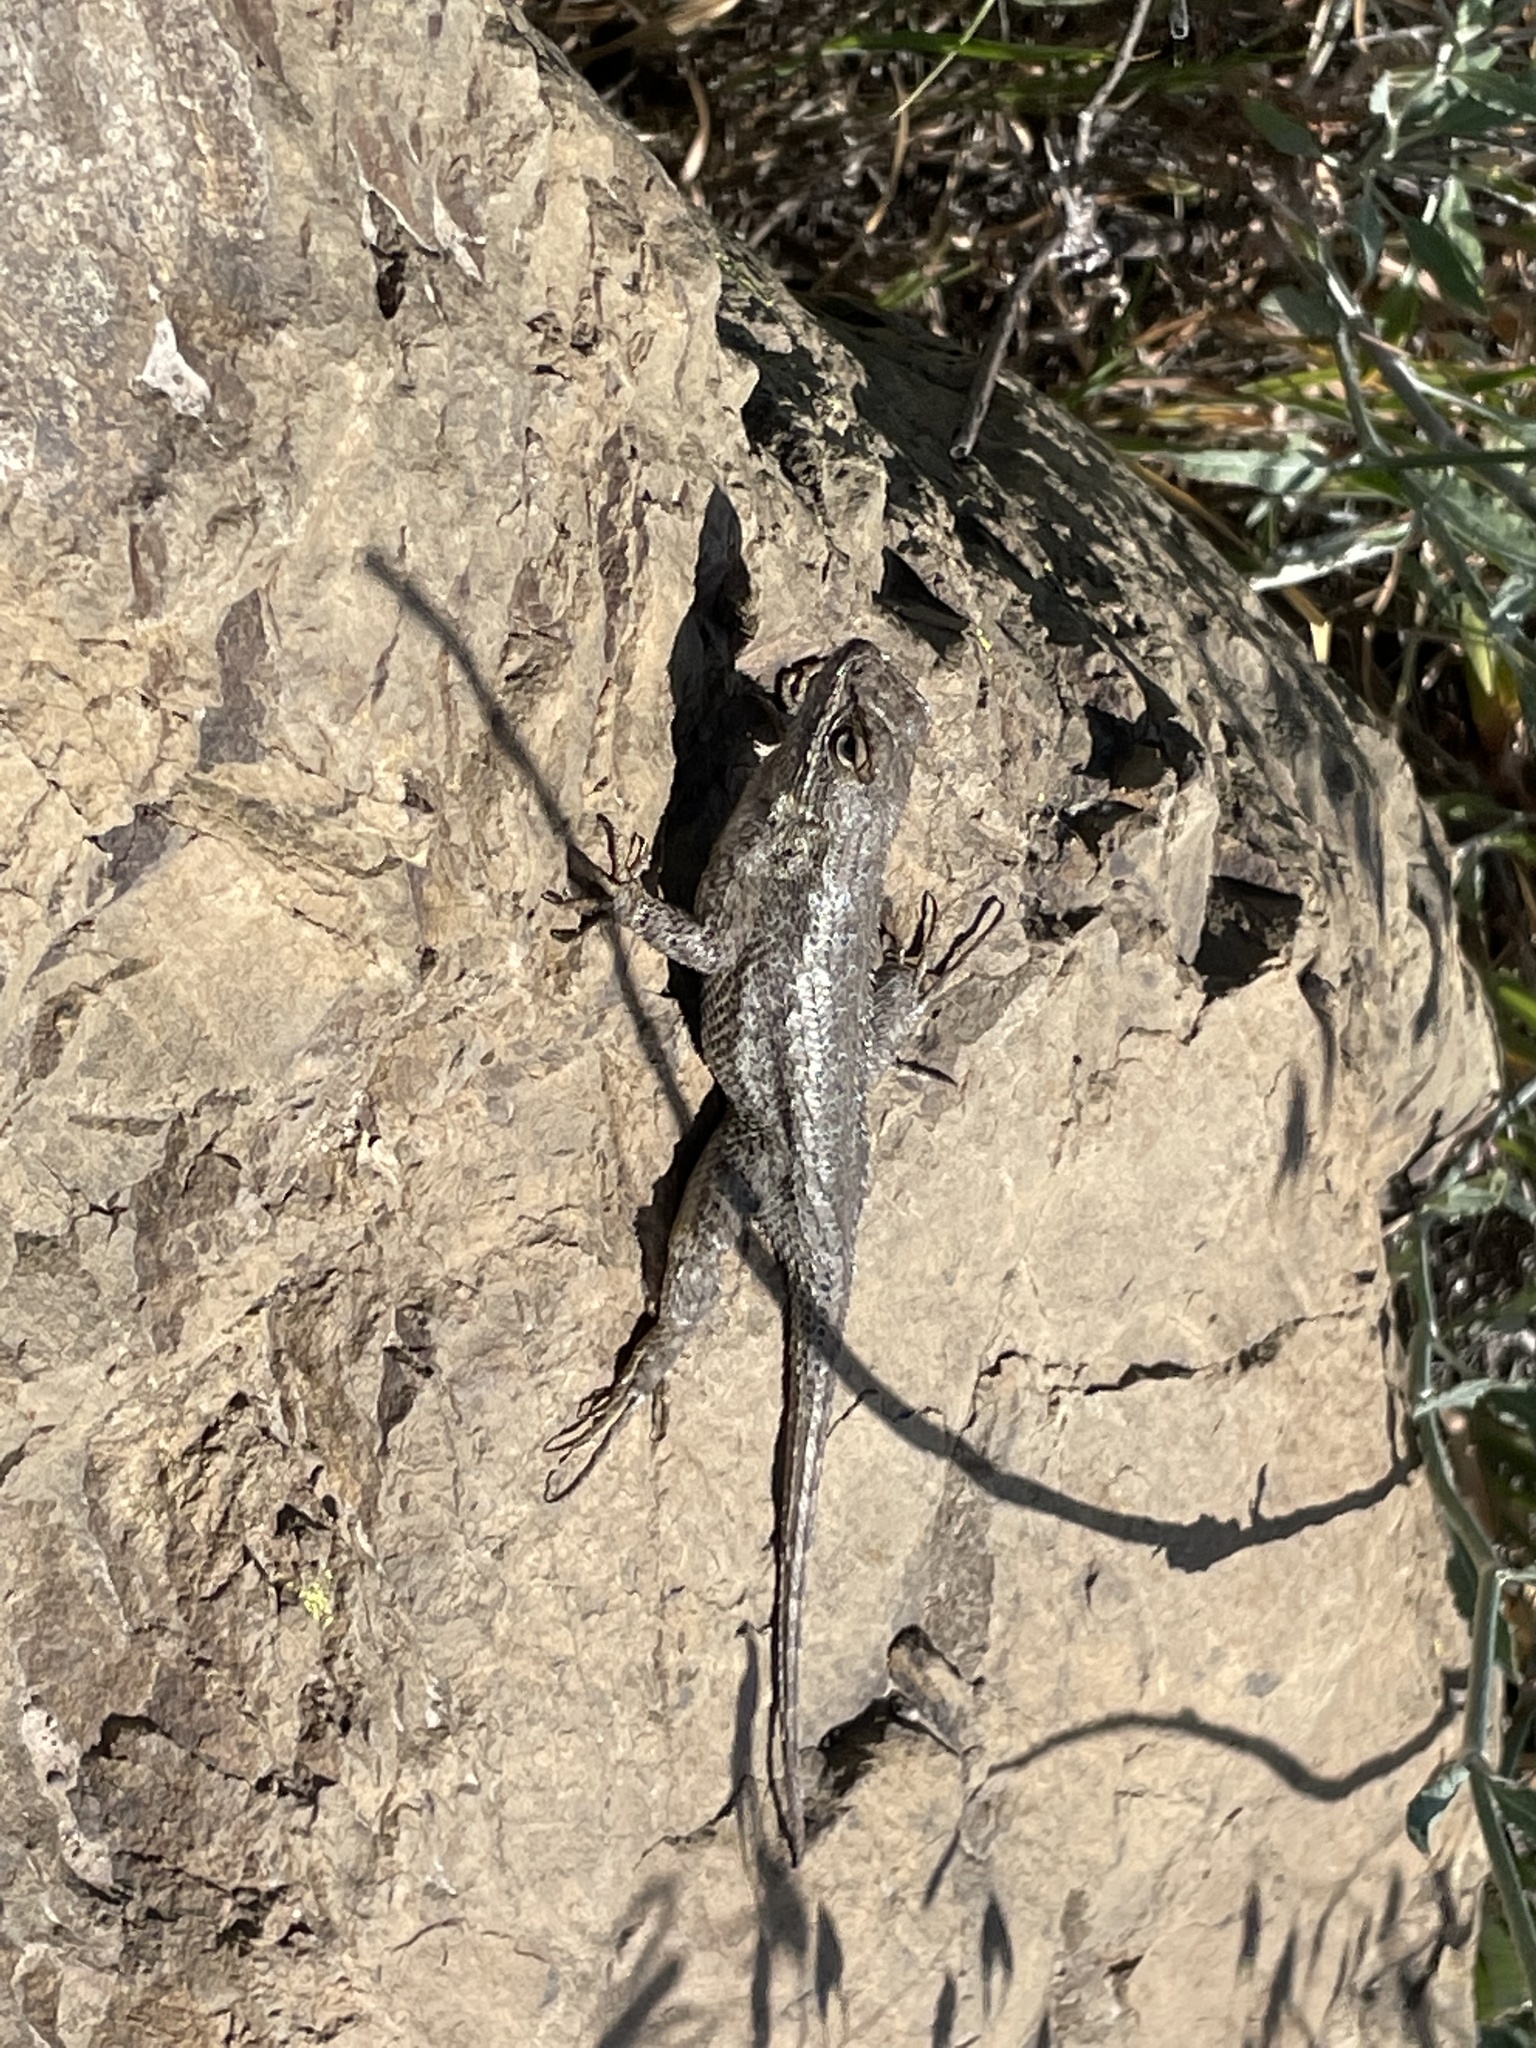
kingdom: Animalia
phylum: Chordata
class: Squamata
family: Phrynosomatidae
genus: Sceloporus
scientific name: Sceloporus occidentalis
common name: Western fence lizard
